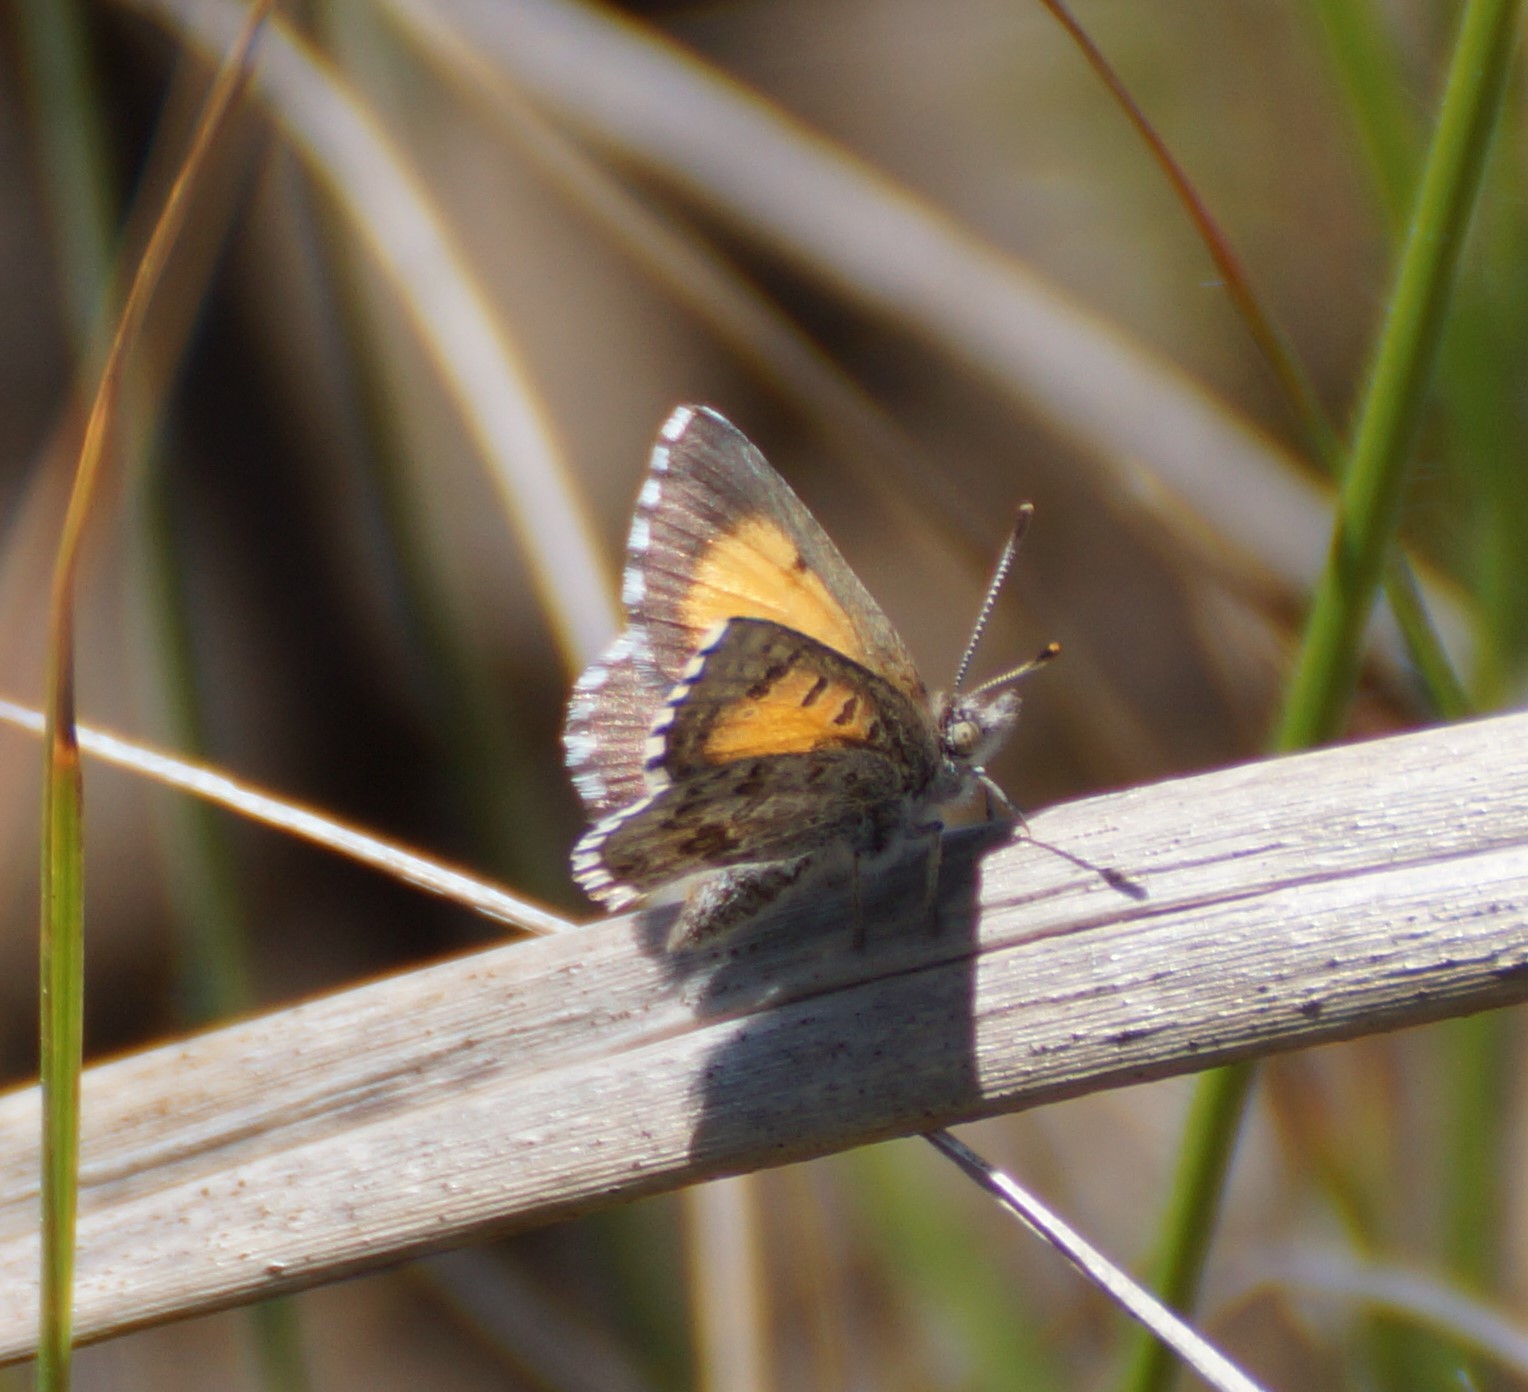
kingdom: Animalia
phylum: Arthropoda
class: Insecta
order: Lepidoptera
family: Lycaenidae
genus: Lucia
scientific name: Lucia limbaria
